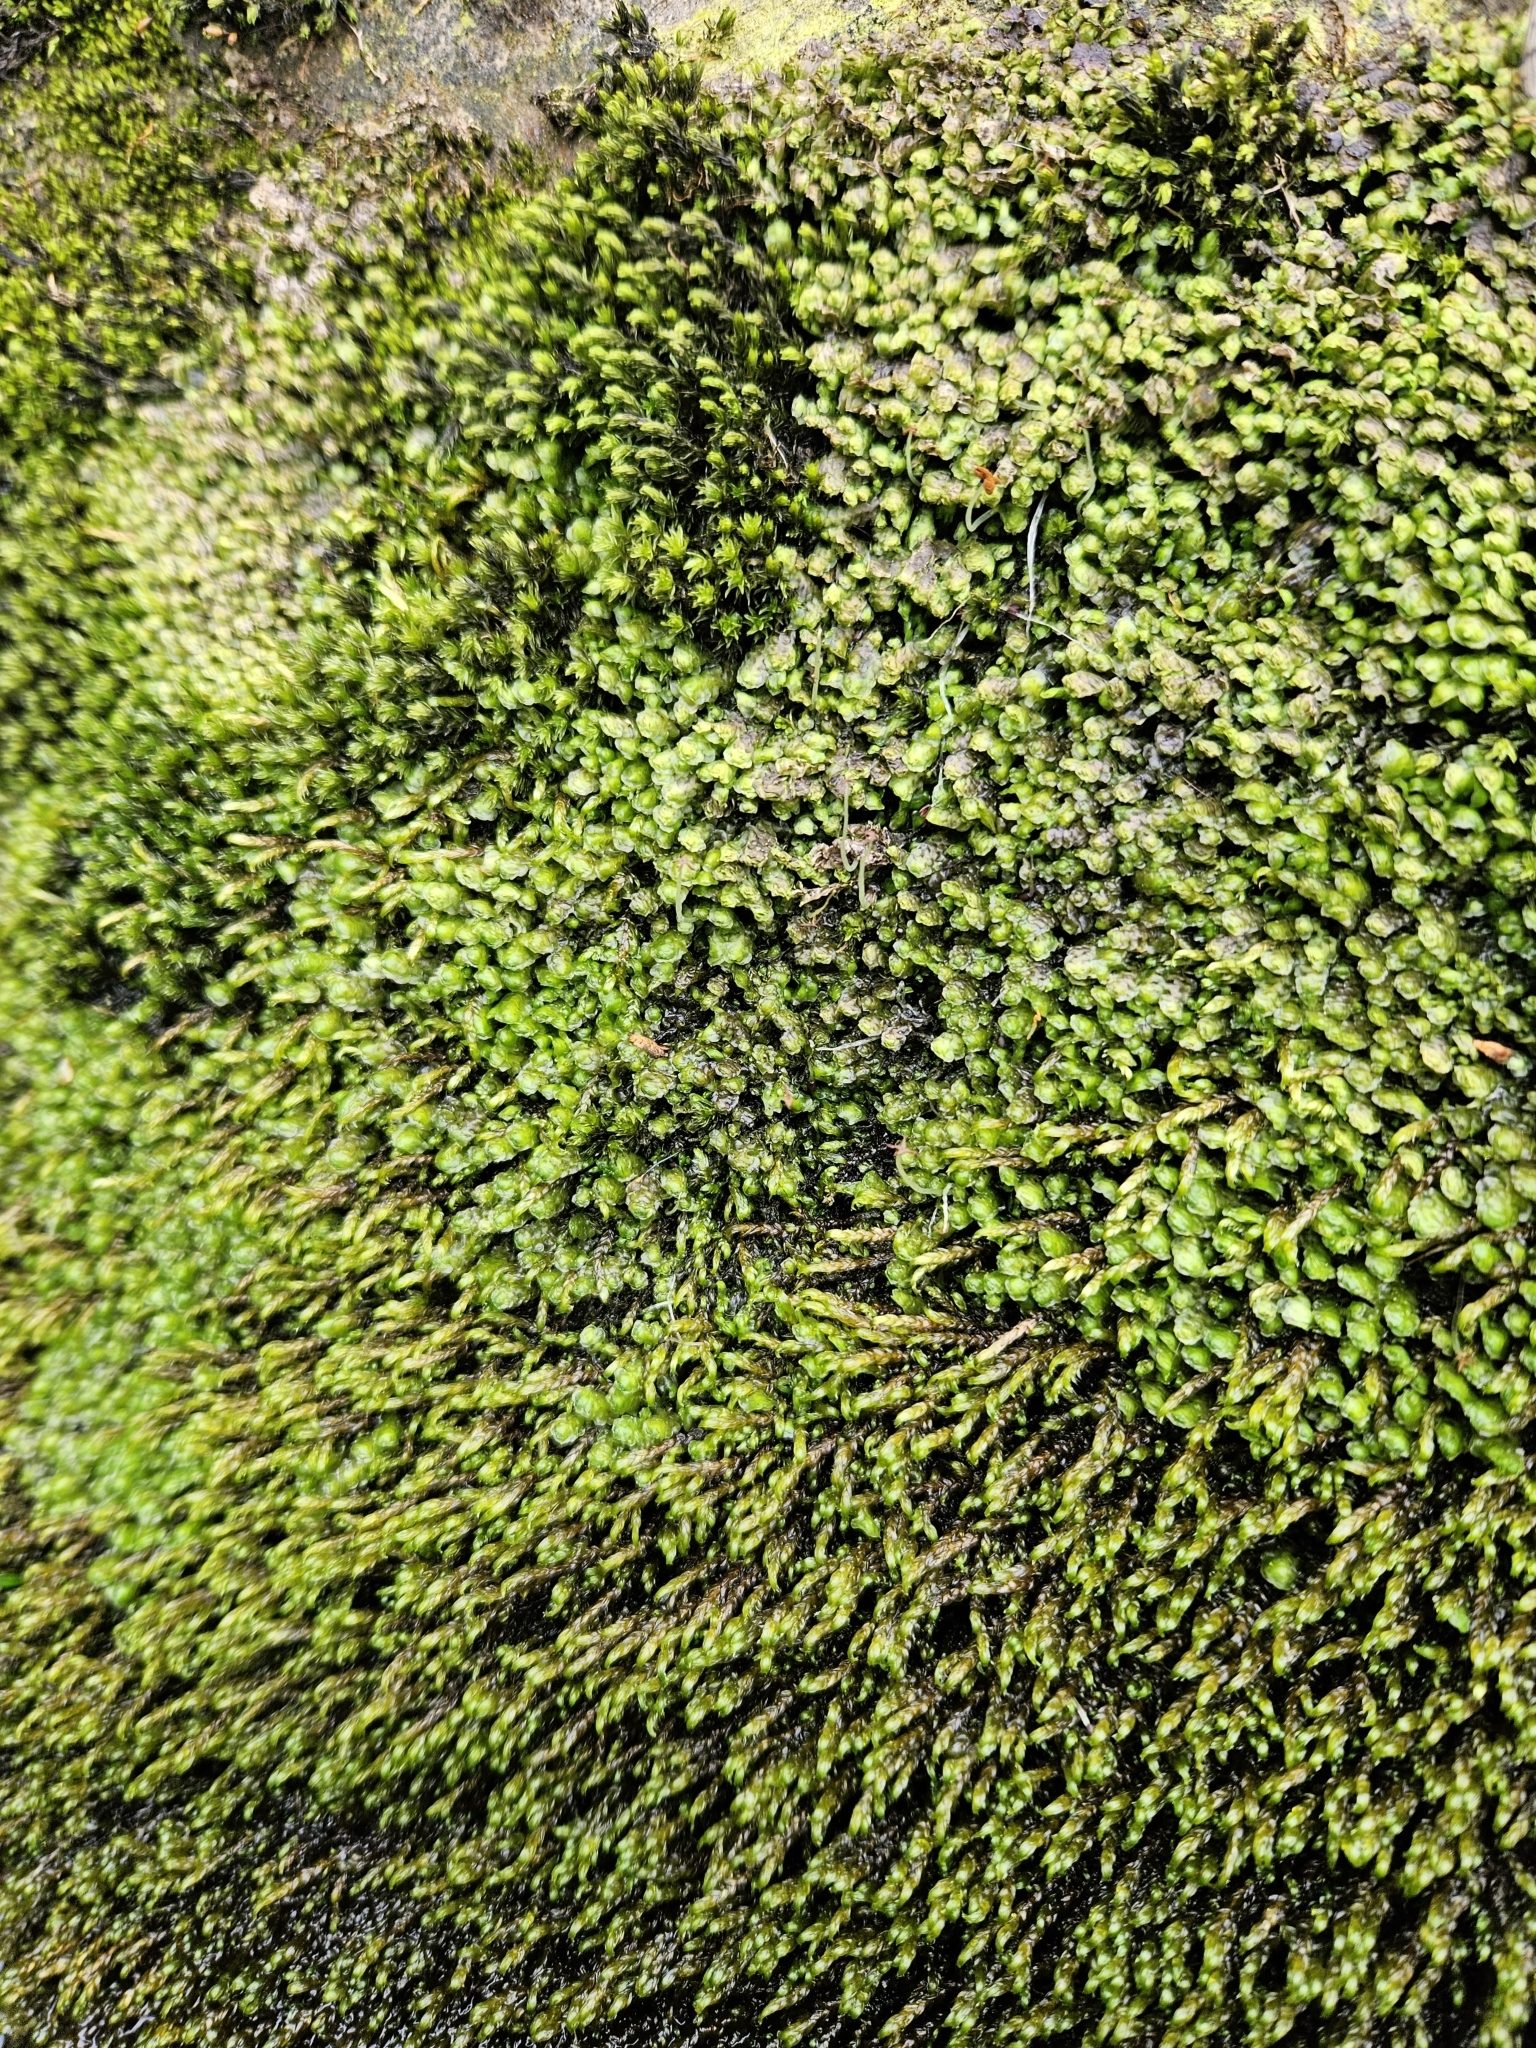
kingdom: Plantae
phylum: Marchantiophyta
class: Jungermanniopsida
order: Jungermanniales
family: Scapaniaceae
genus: Scapania
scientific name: Scapania undulata
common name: Water earwort
